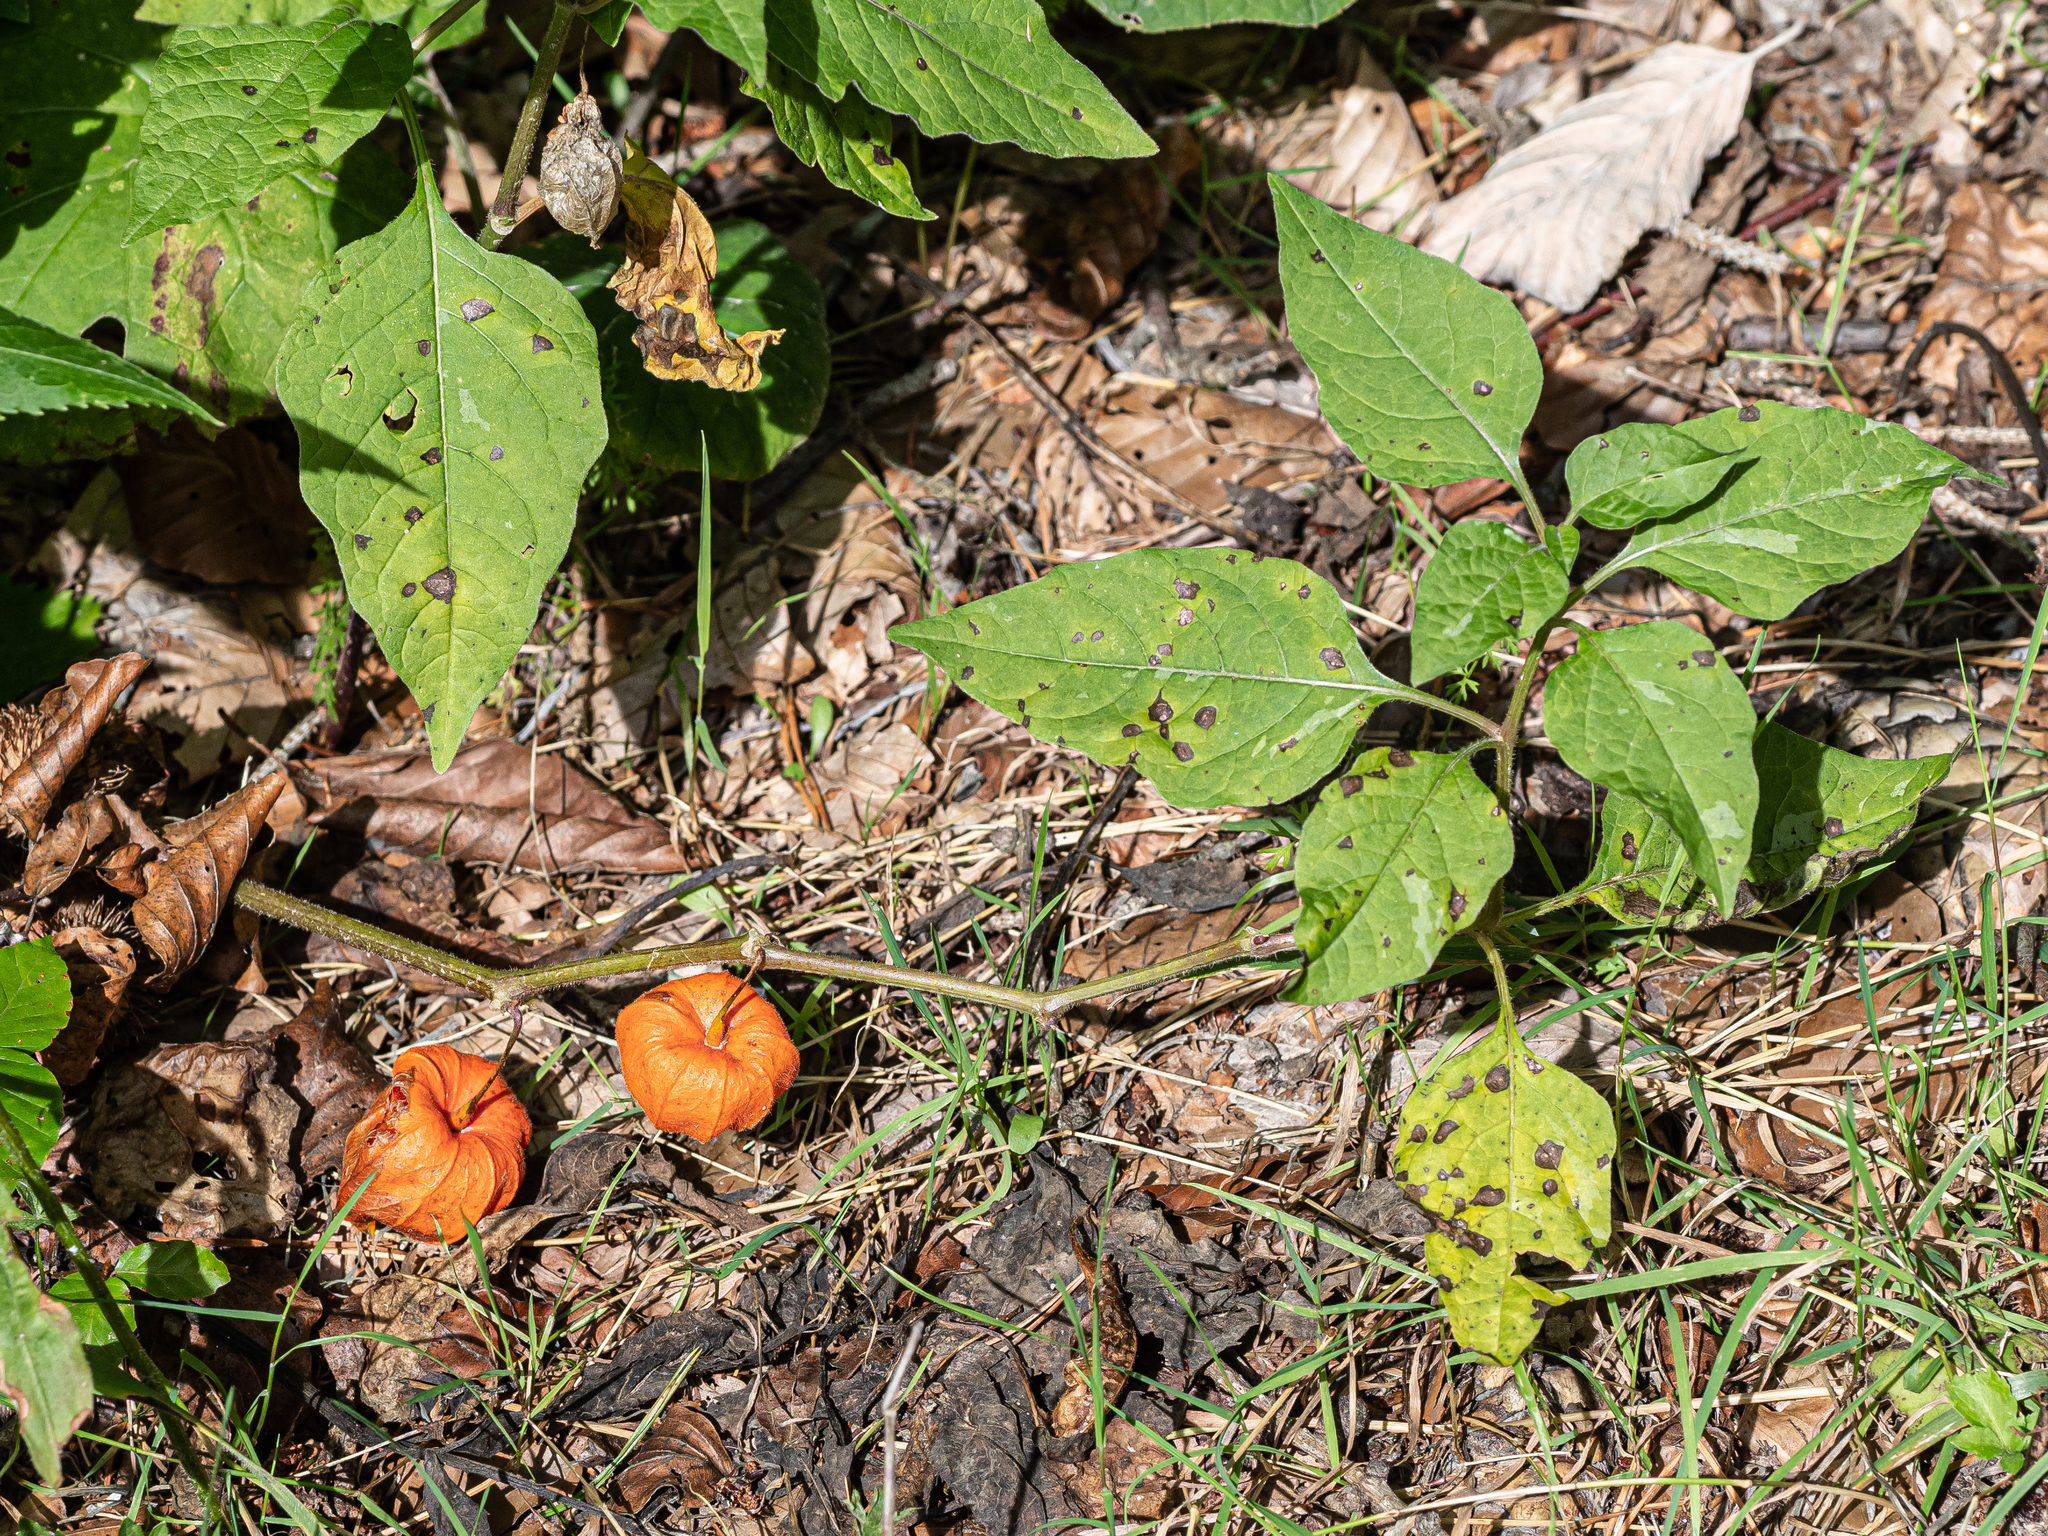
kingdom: Plantae
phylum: Tracheophyta
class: Magnoliopsida
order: Solanales
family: Solanaceae
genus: Alkekengi
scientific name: Alkekengi officinarum
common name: Japanese-lantern
